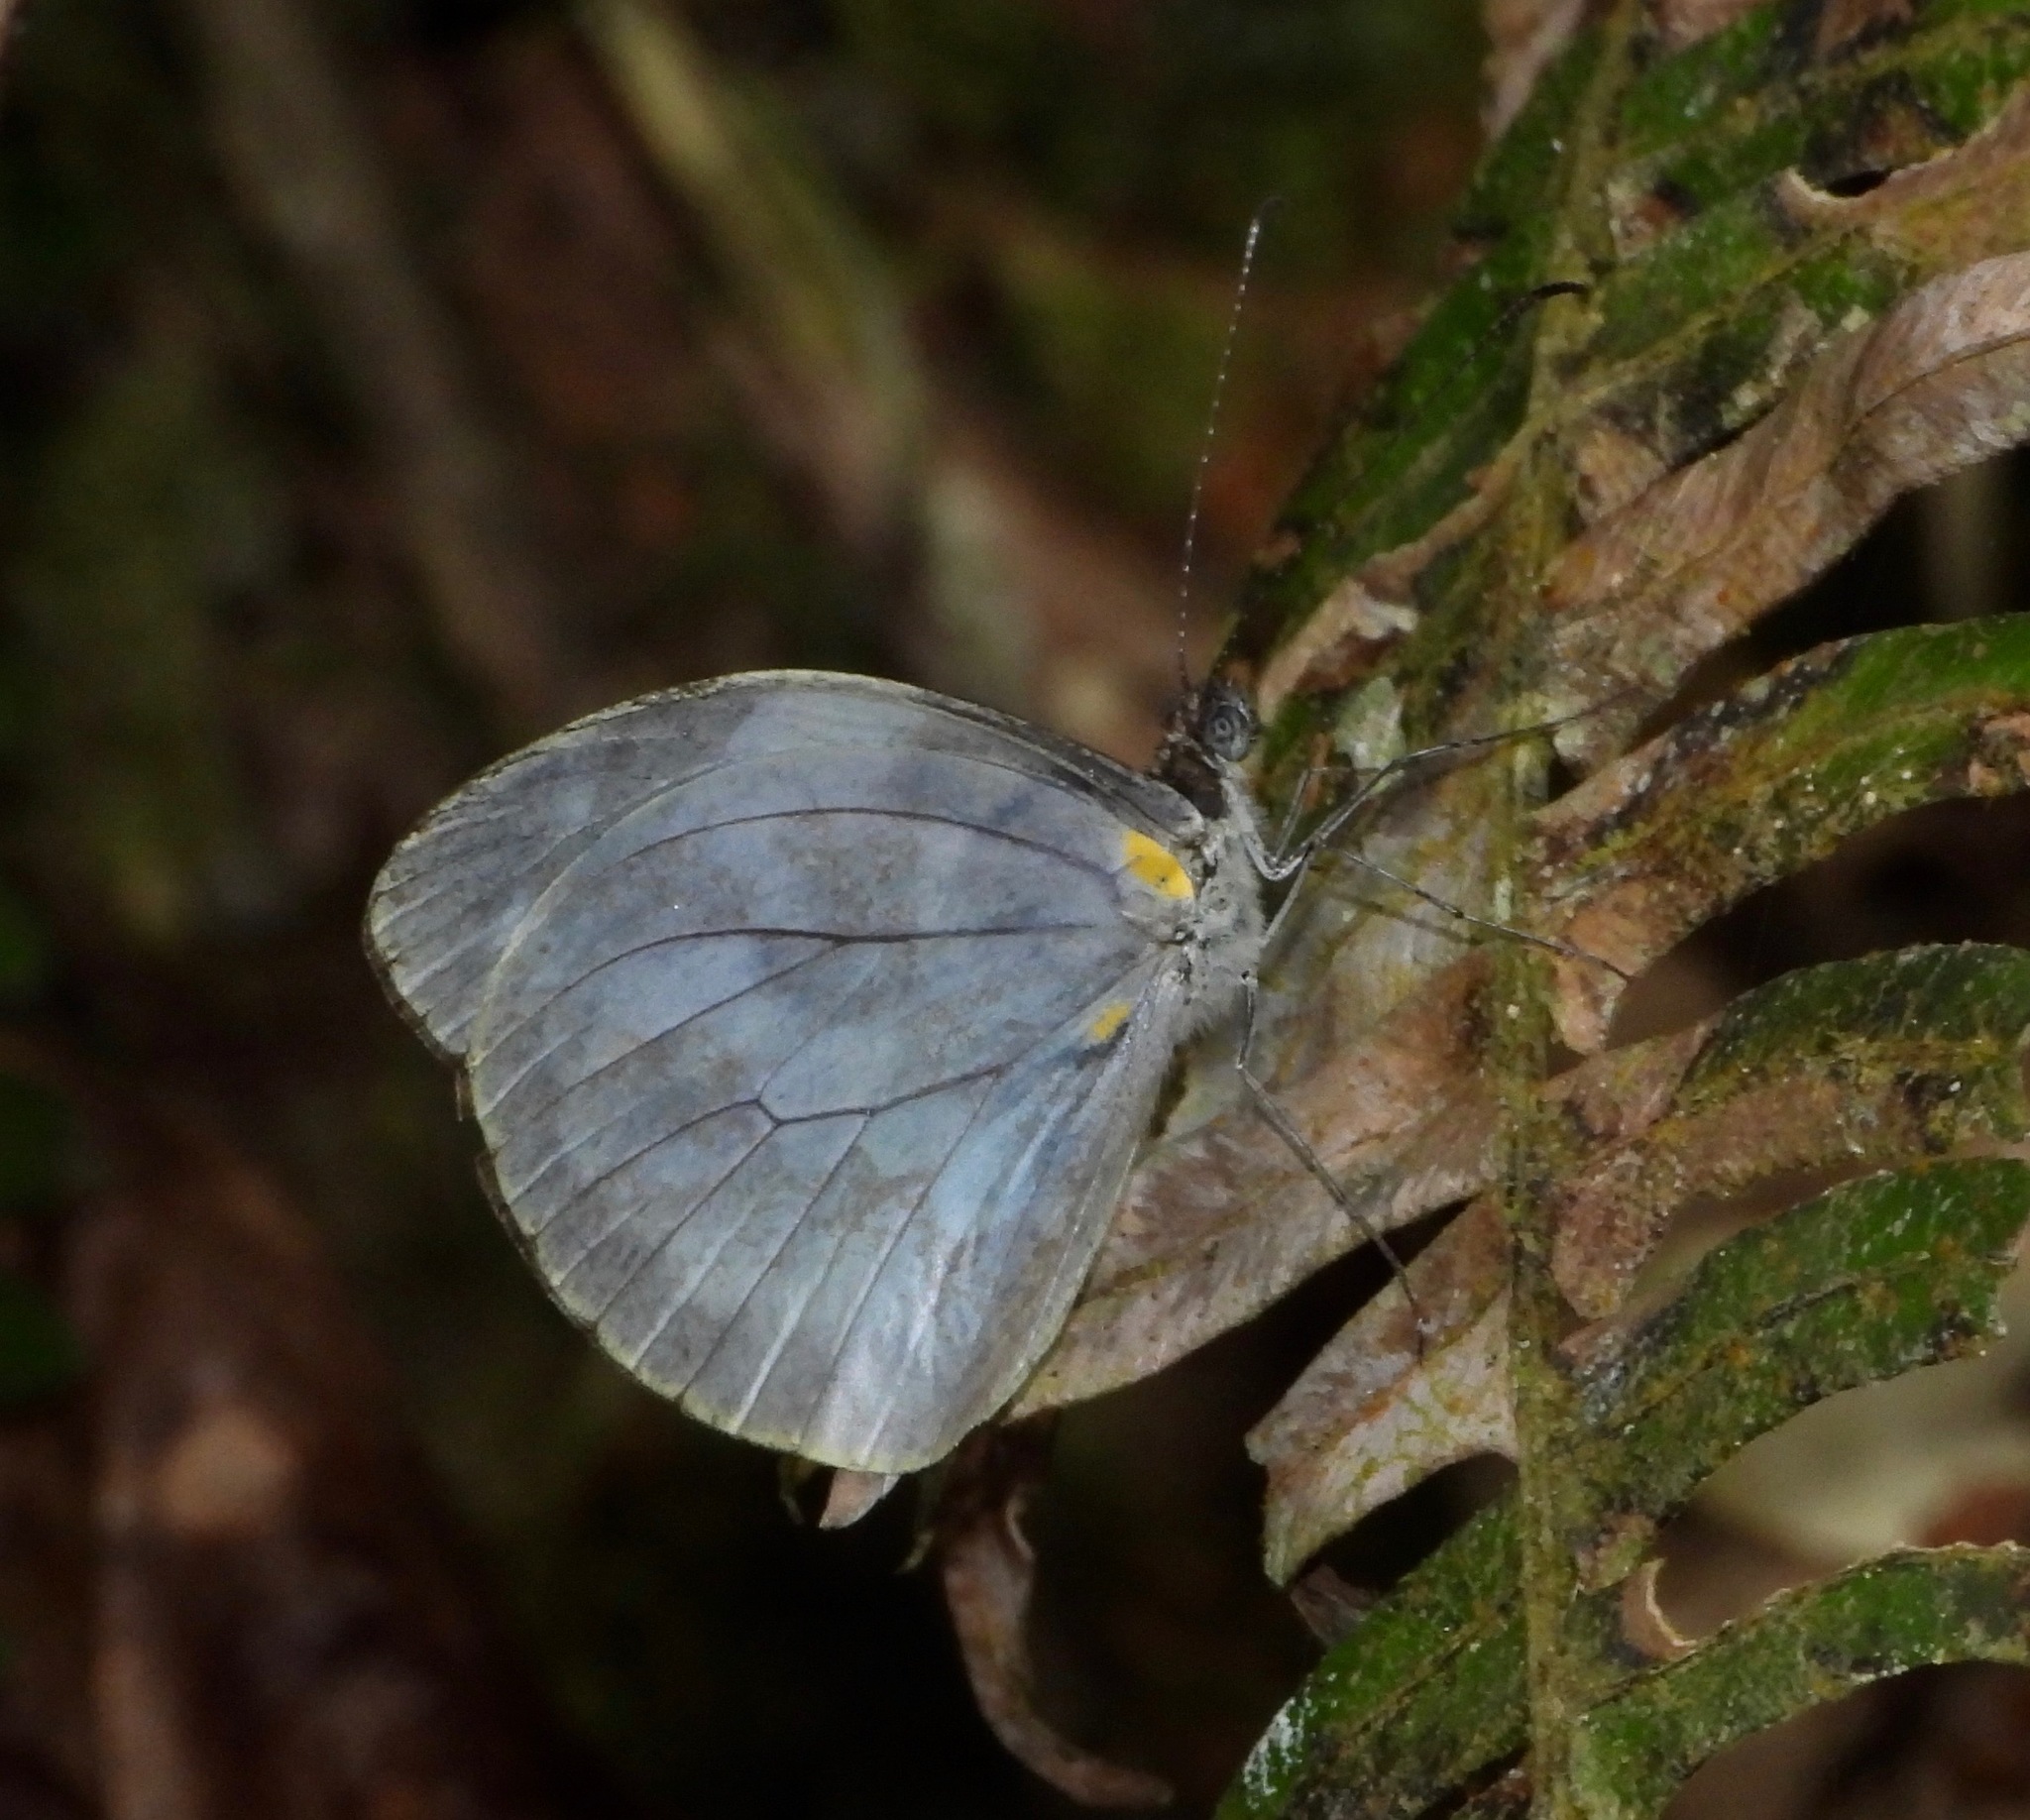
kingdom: Animalia
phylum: Arthropoda
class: Insecta
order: Lepidoptera
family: Pieridae
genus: Dismorphia
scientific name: Dismorphia crisia
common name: Crisia mimic-white
